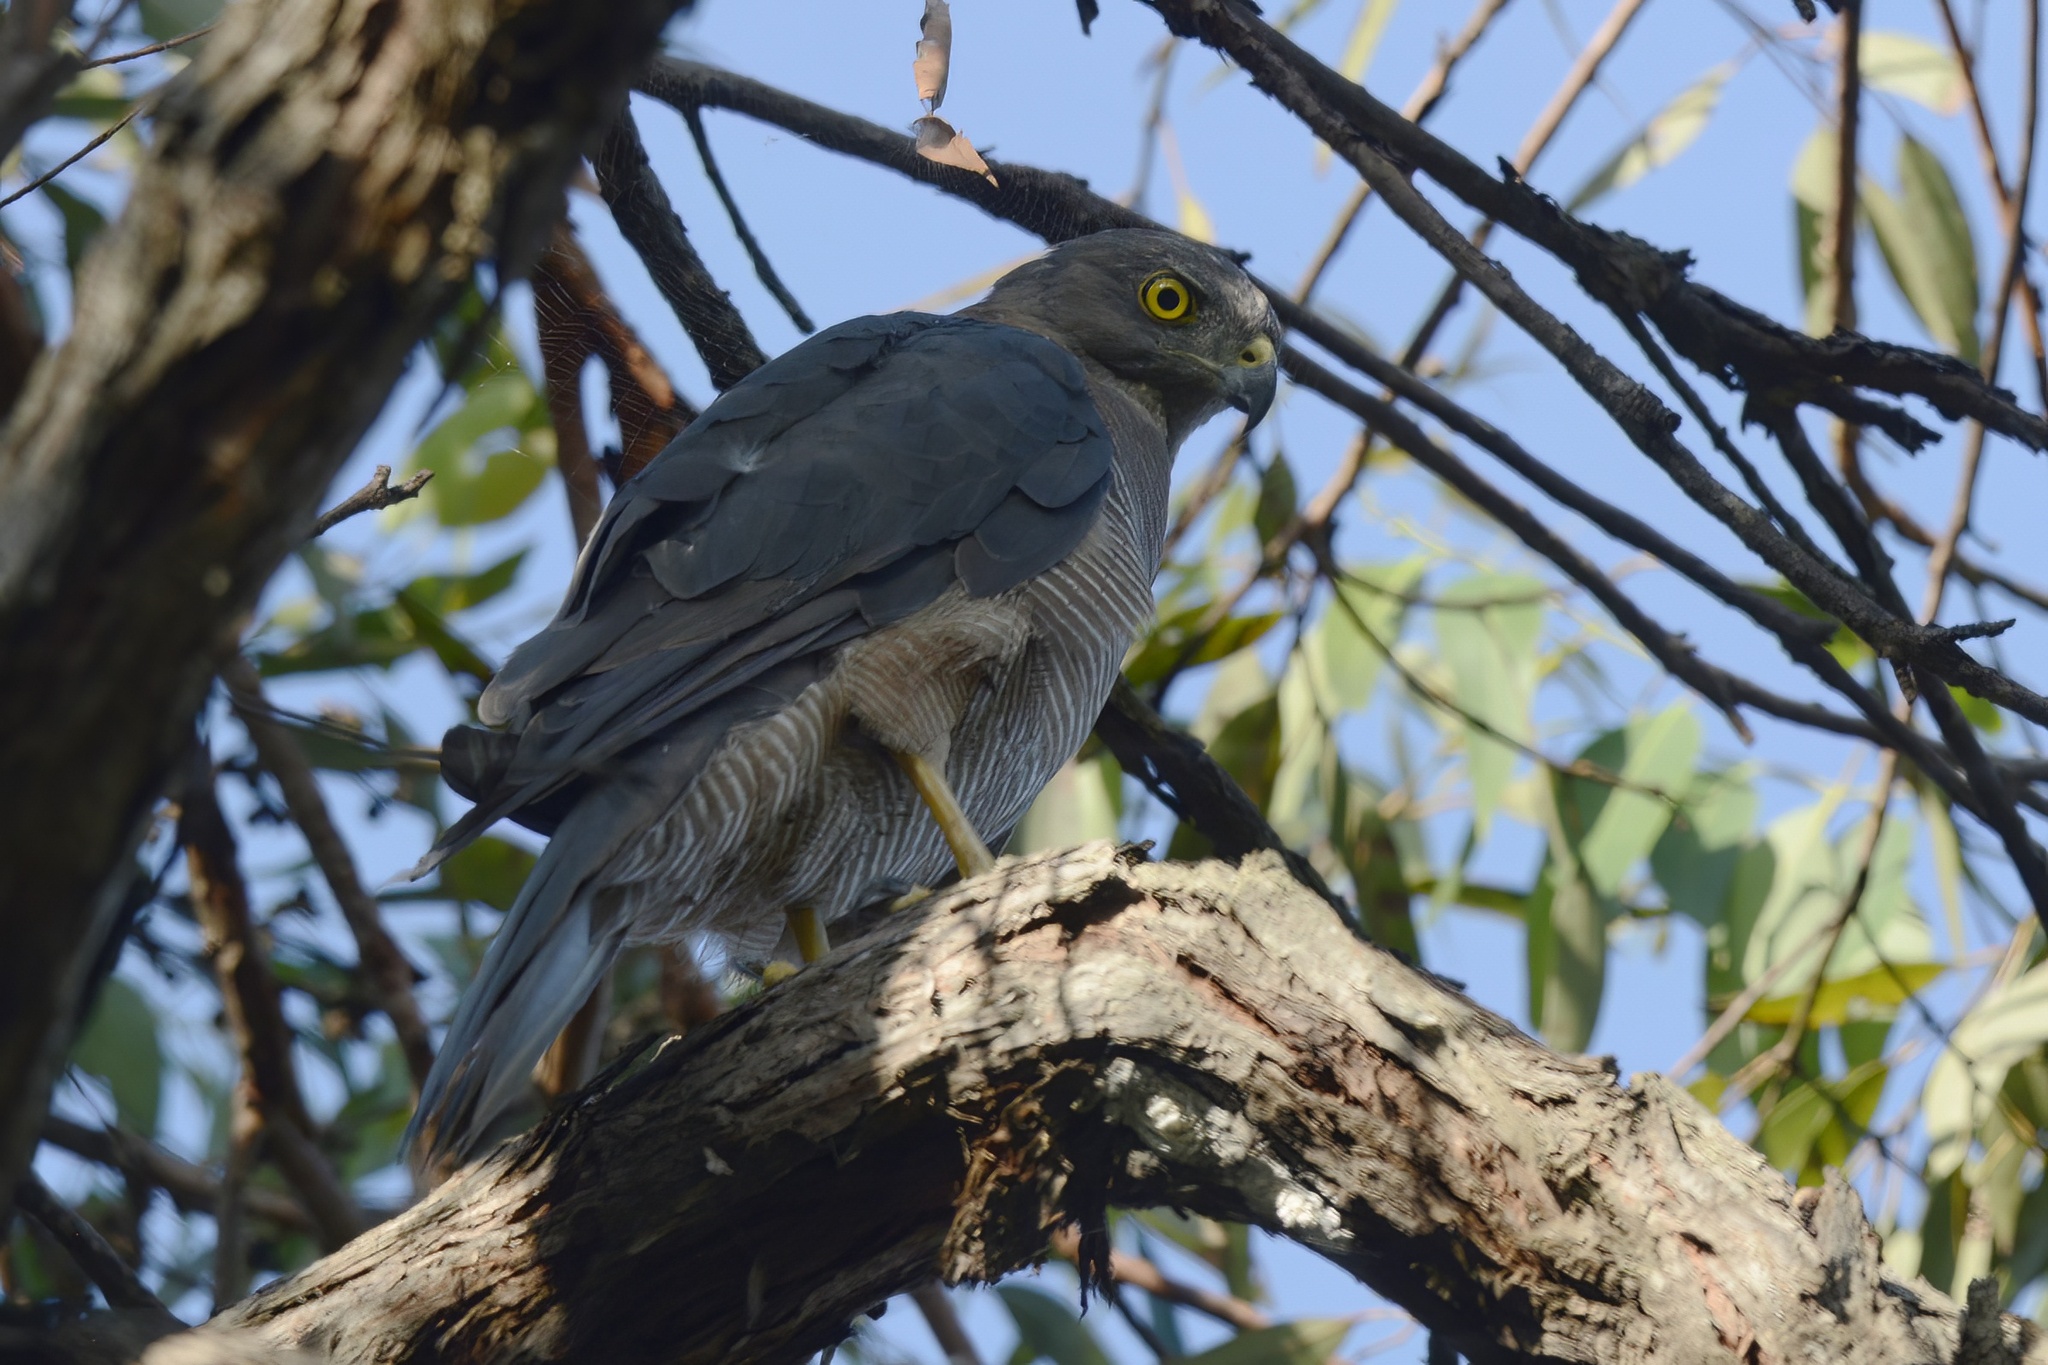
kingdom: Animalia
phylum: Chordata
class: Aves
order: Accipitriformes
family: Accipitridae
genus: Accipiter
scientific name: Accipiter fasciatus
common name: Brown goshawk
